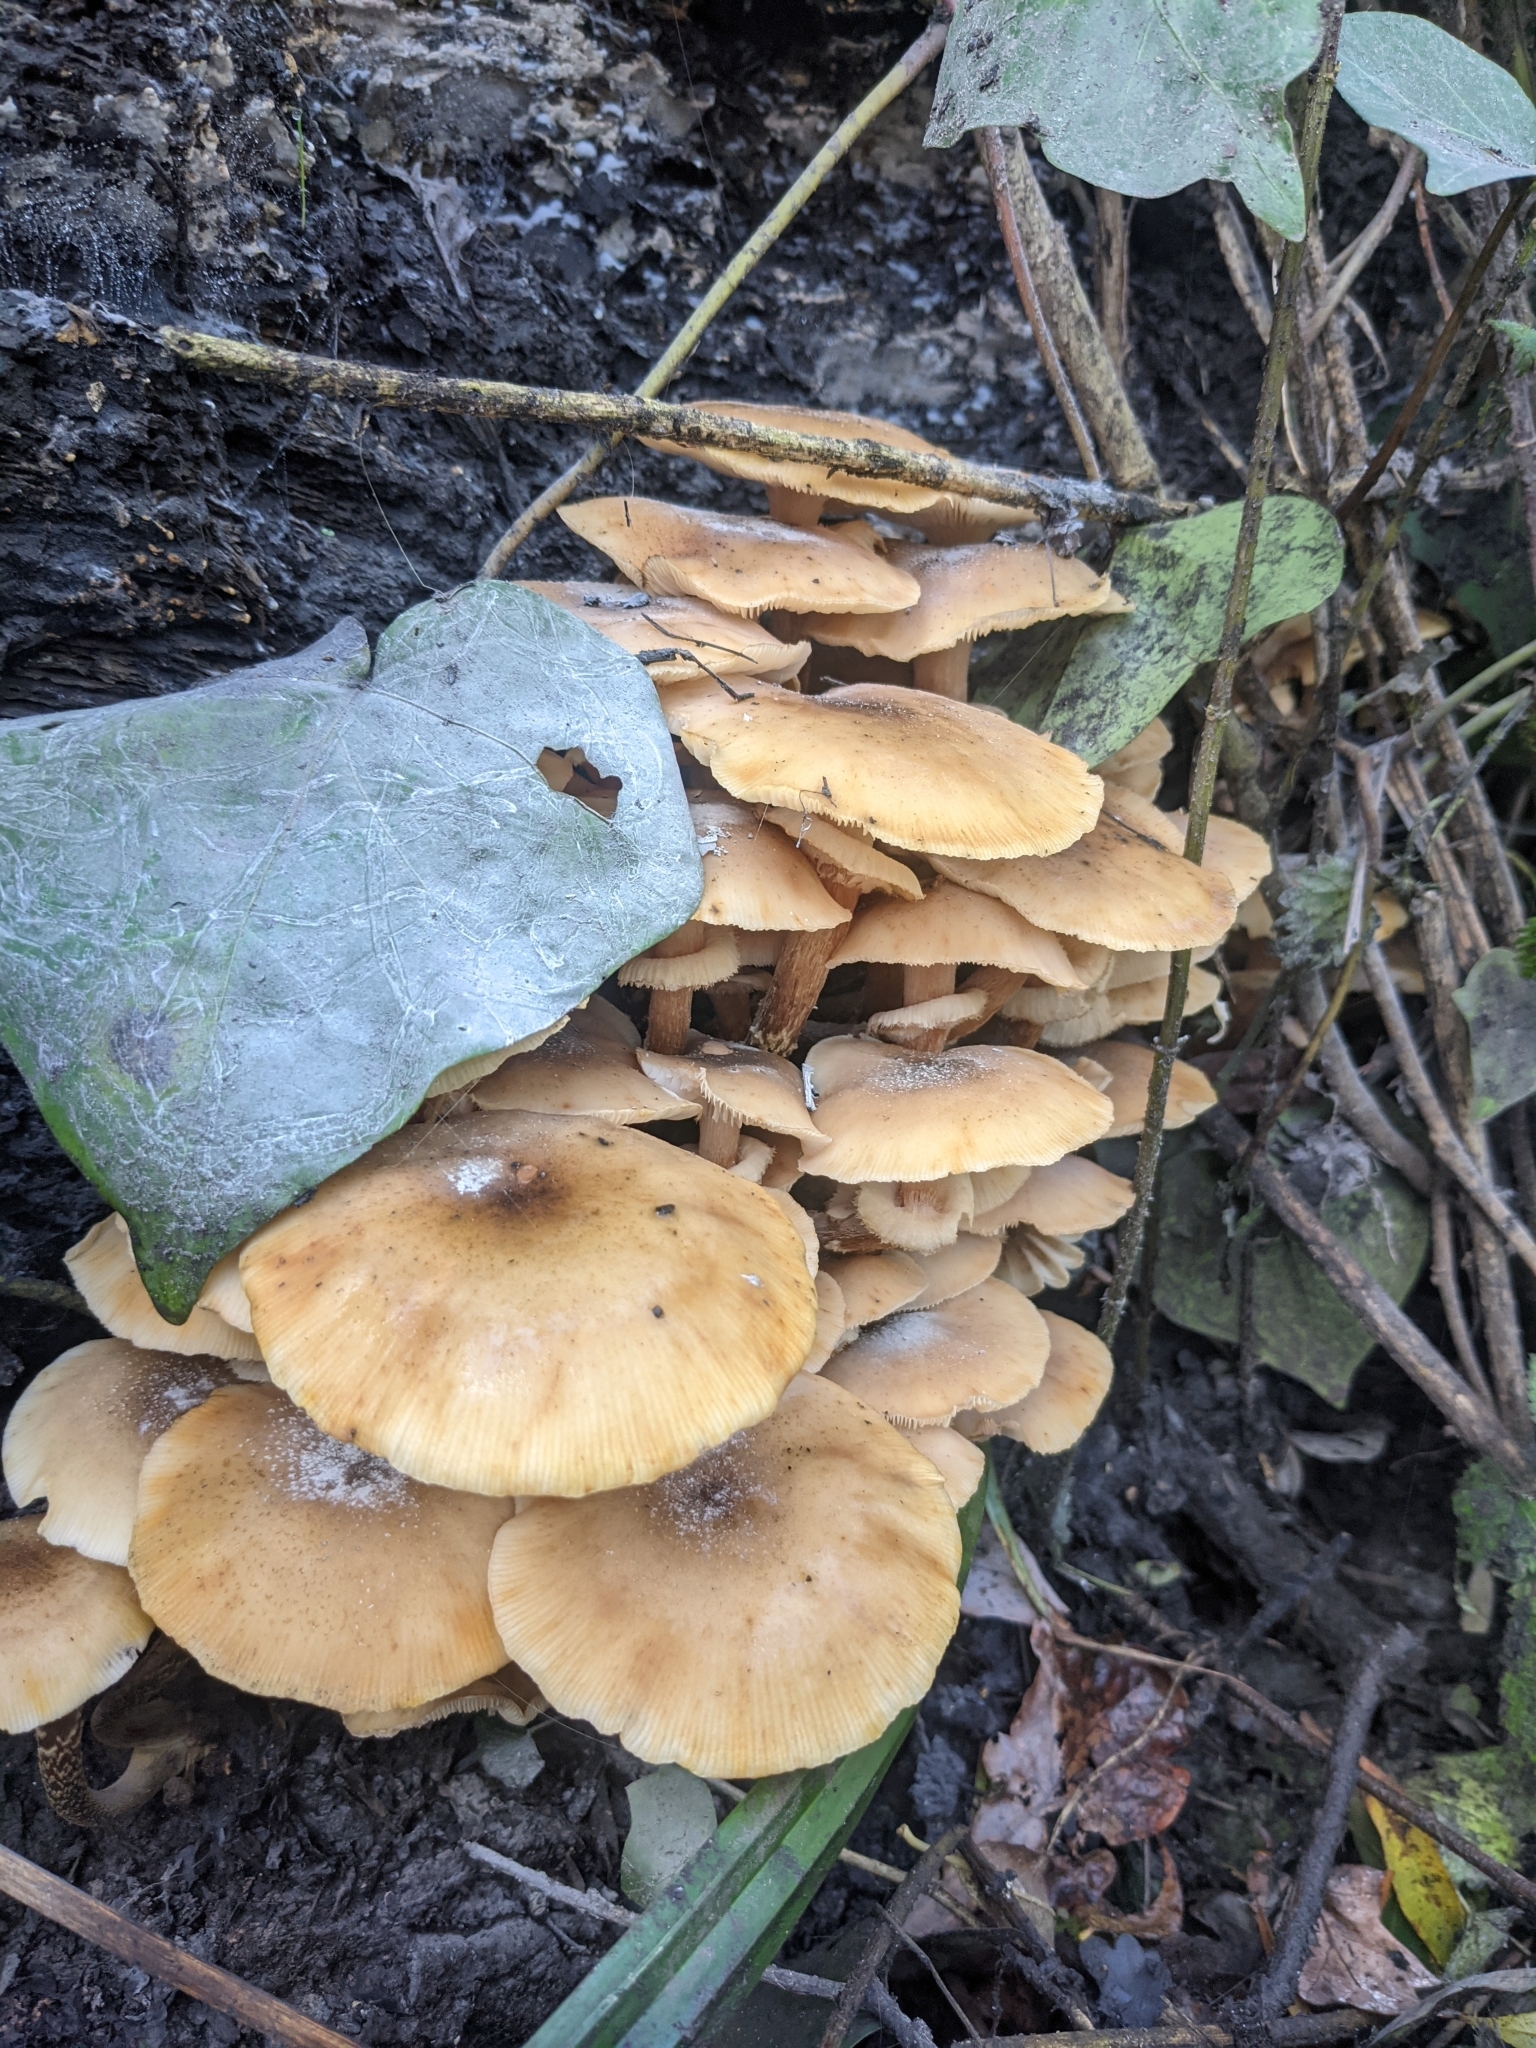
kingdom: Fungi
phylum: Basidiomycota
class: Agaricomycetes
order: Agaricales
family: Physalacriaceae
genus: Armillaria
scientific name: Armillaria mellea
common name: Honey fungus
